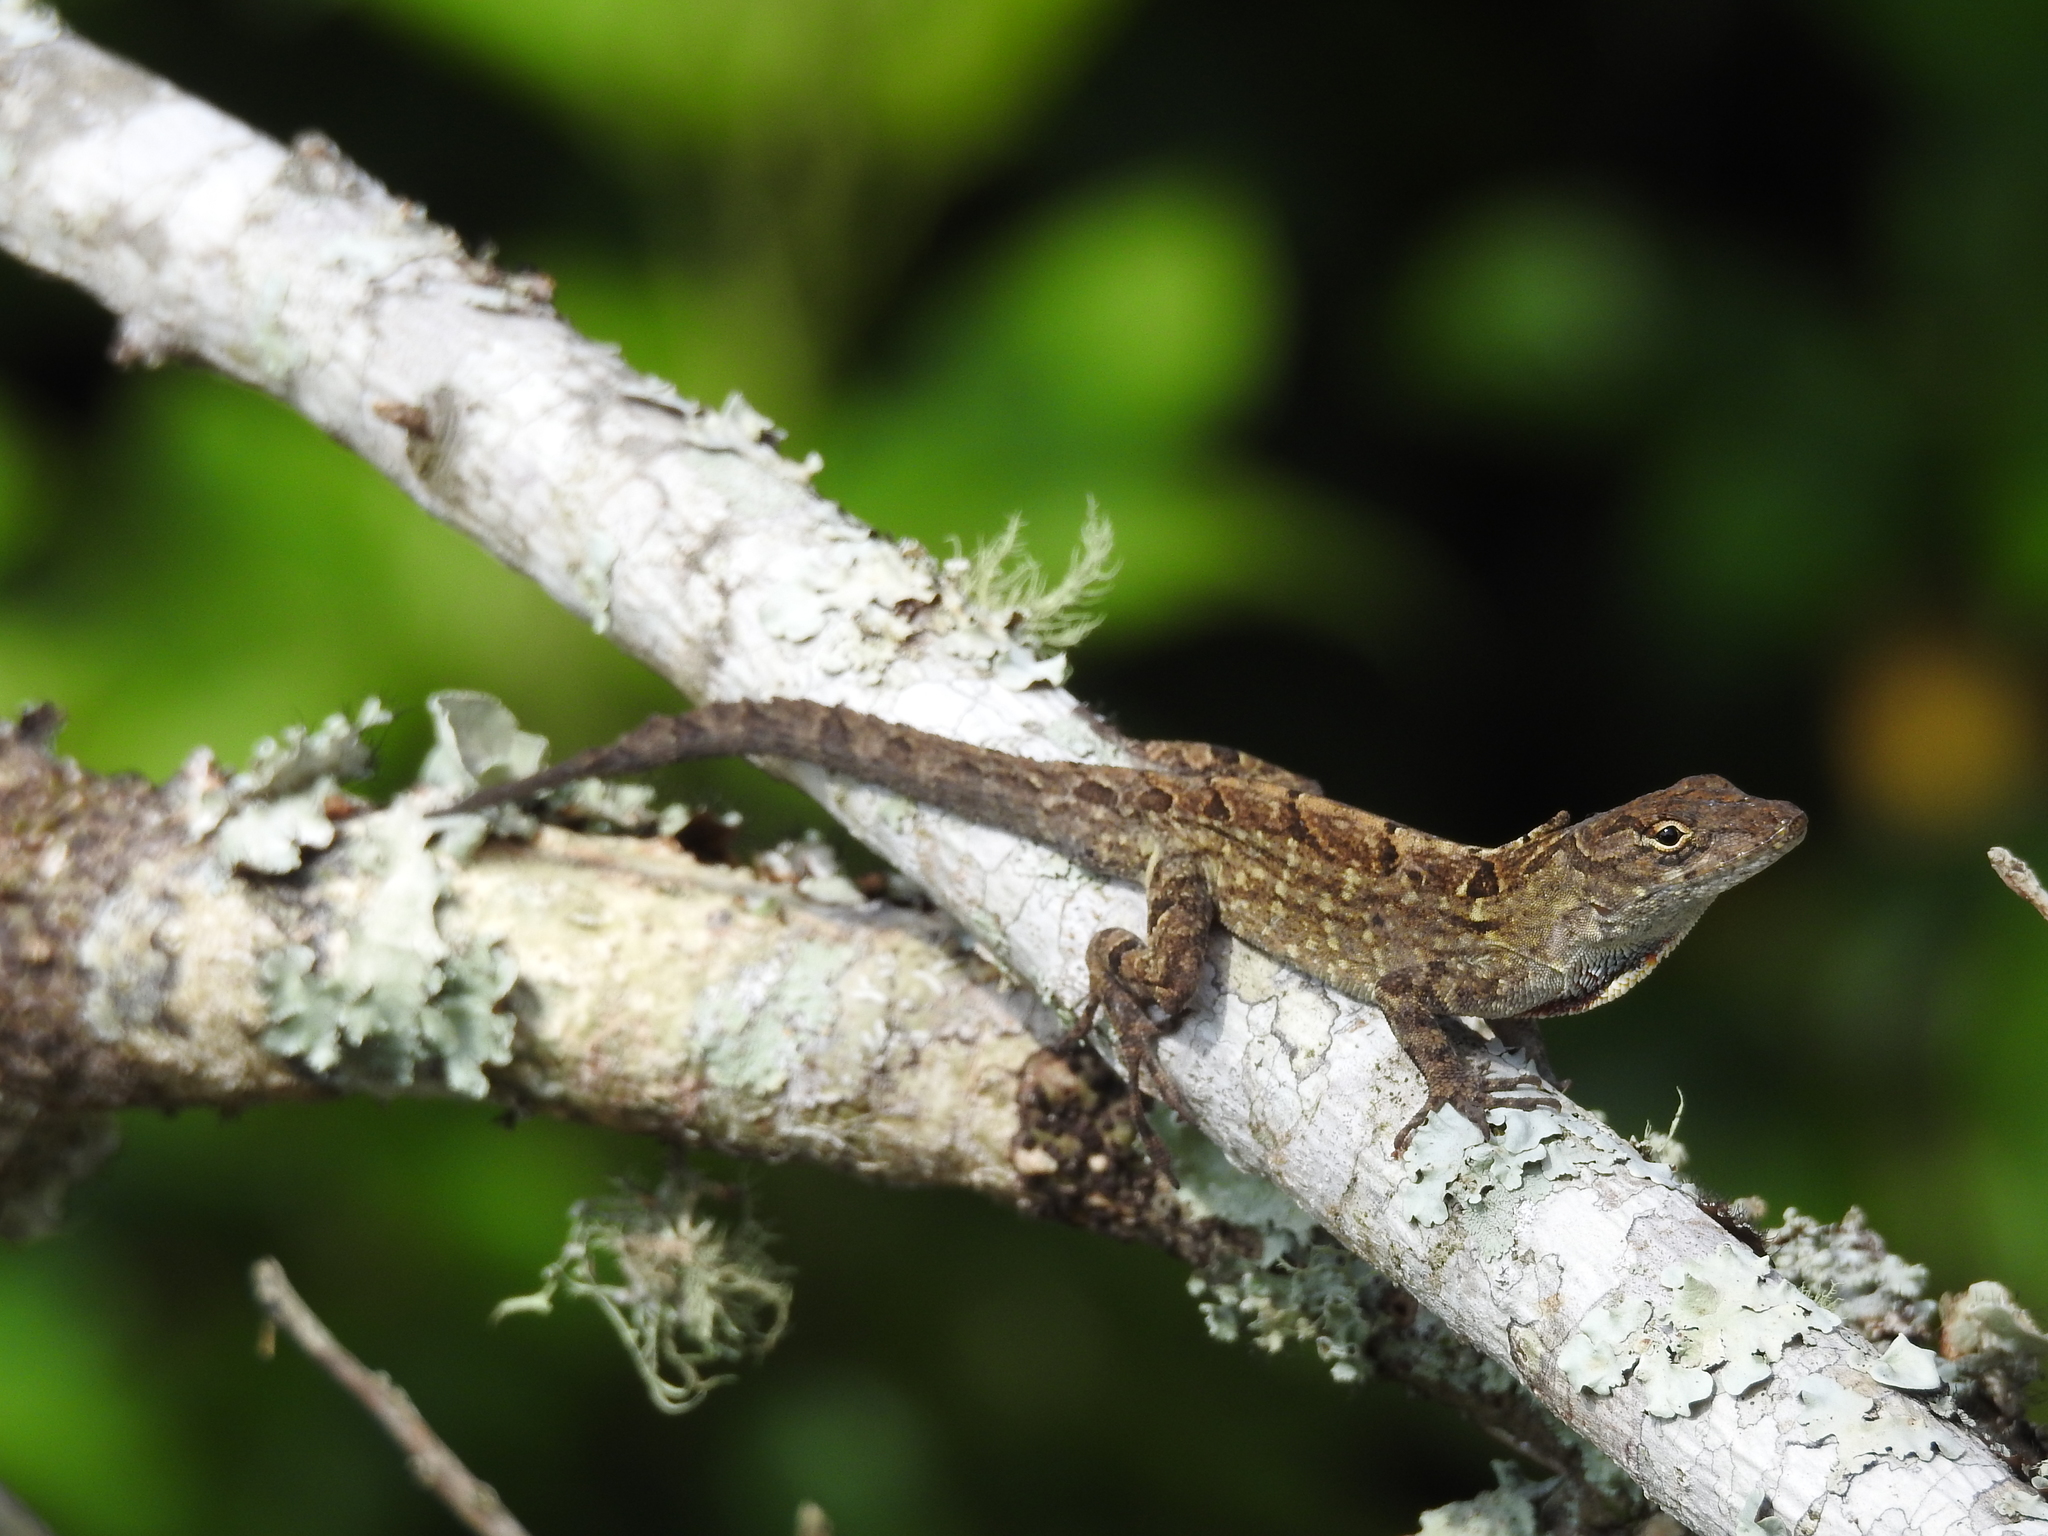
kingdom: Animalia
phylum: Chordata
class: Squamata
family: Dactyloidae
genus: Anolis
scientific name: Anolis sagrei
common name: Brown anole
